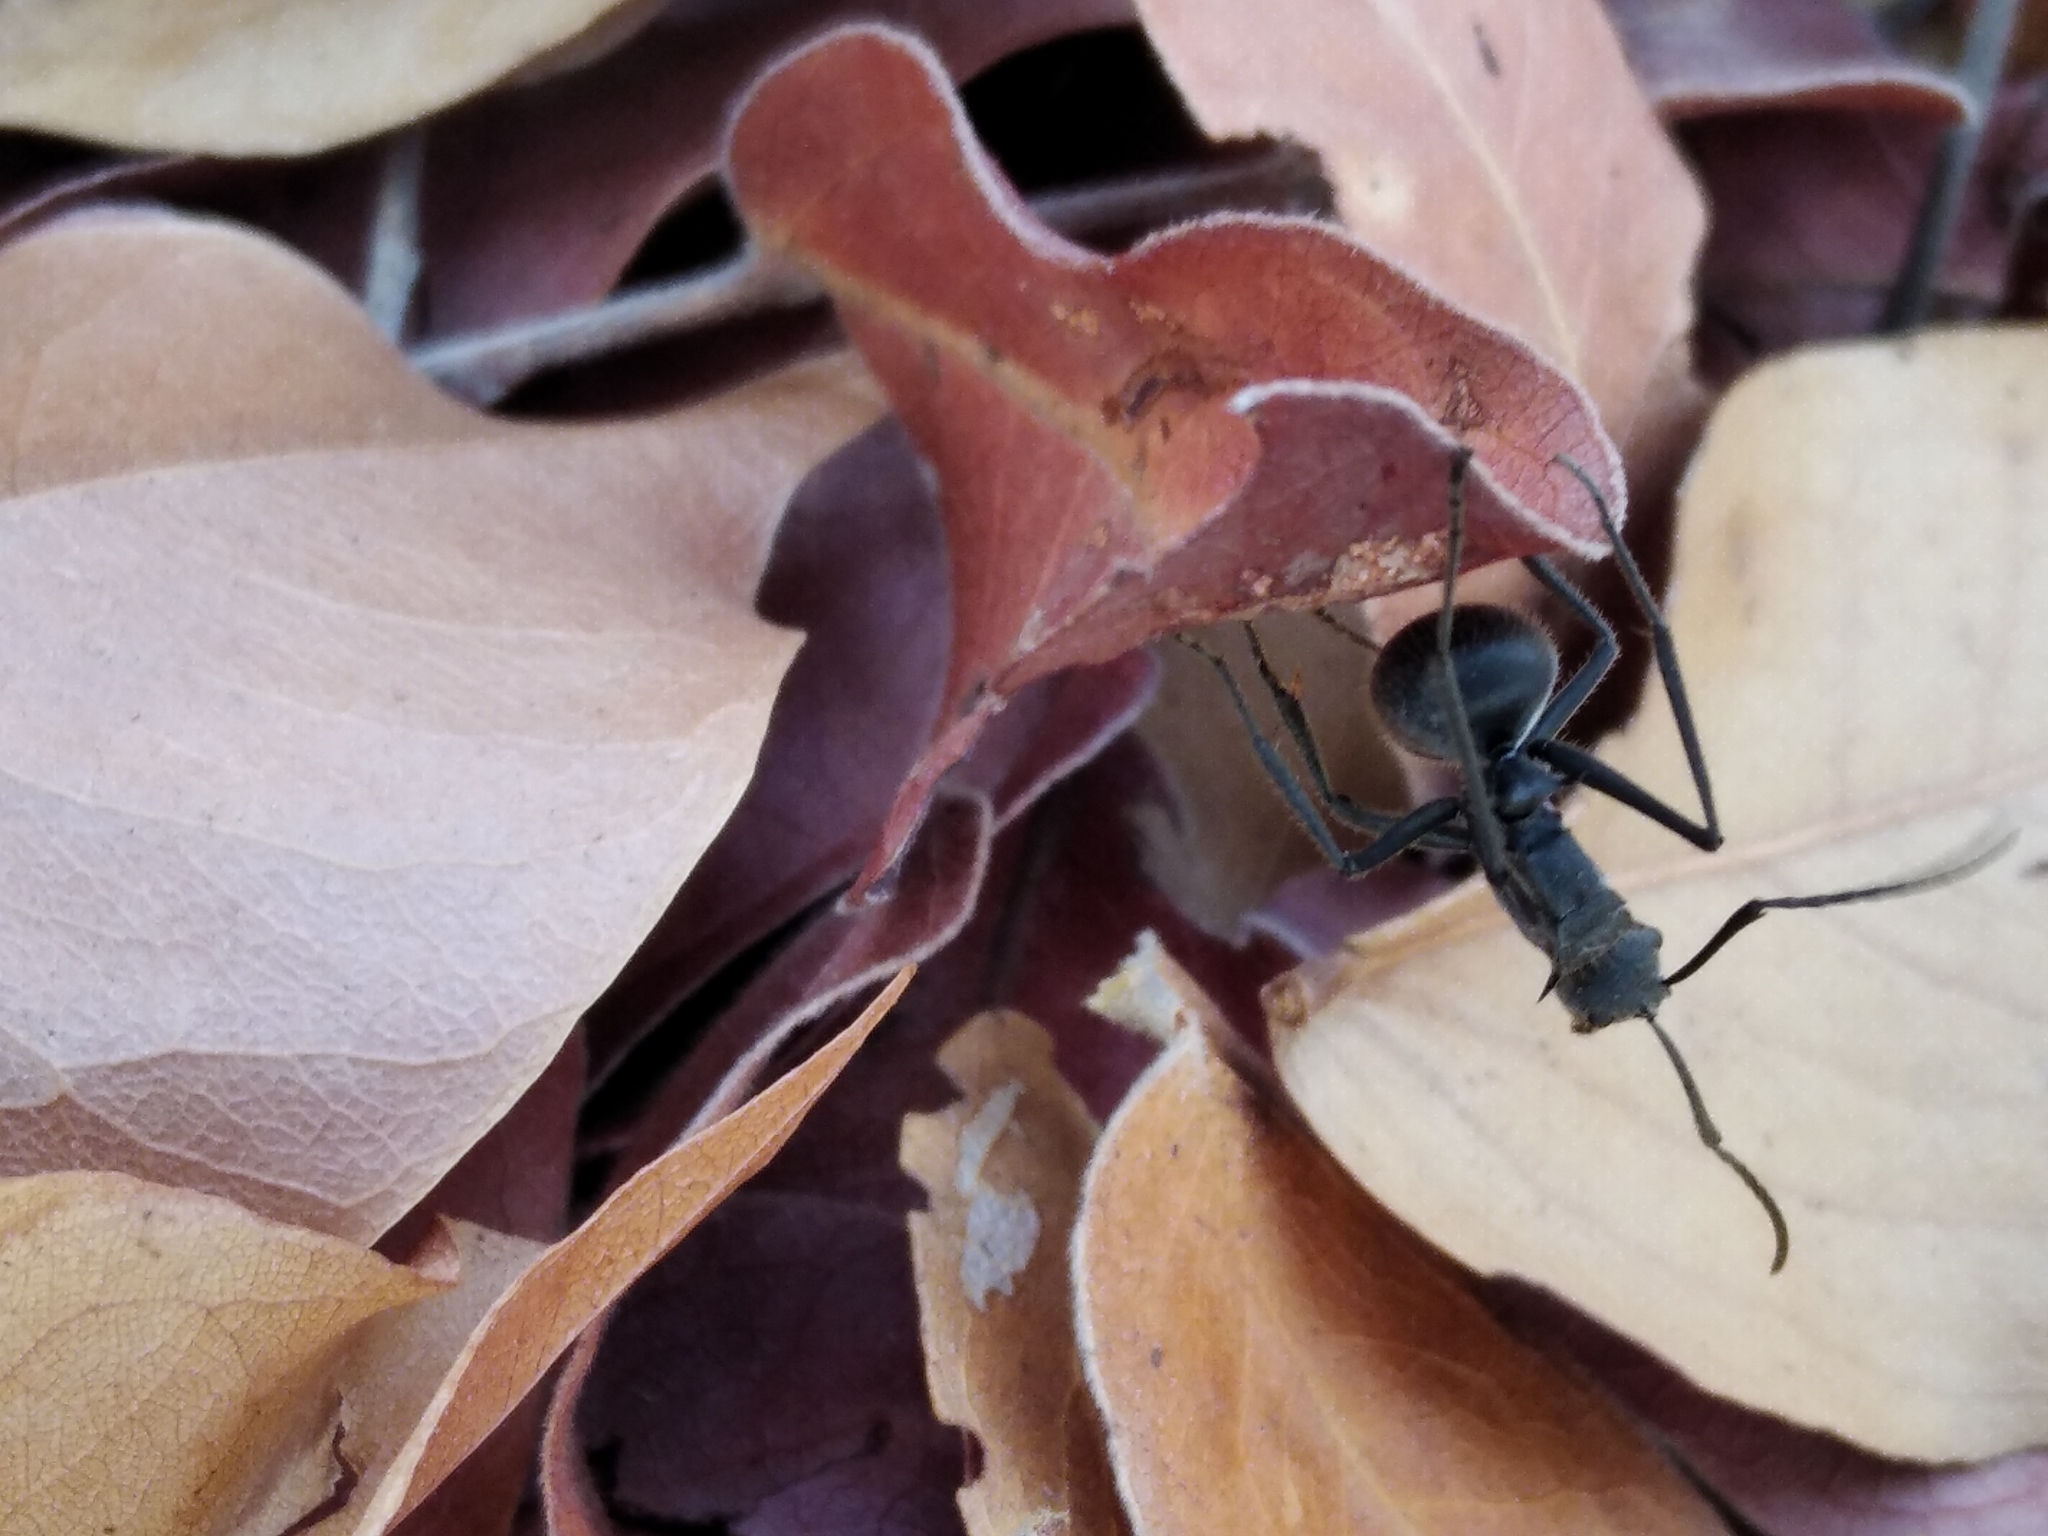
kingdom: Animalia
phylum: Arthropoda
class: Insecta
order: Hymenoptera
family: Formicidae
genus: Polyrhachis
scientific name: Polyrhachis schistacea
